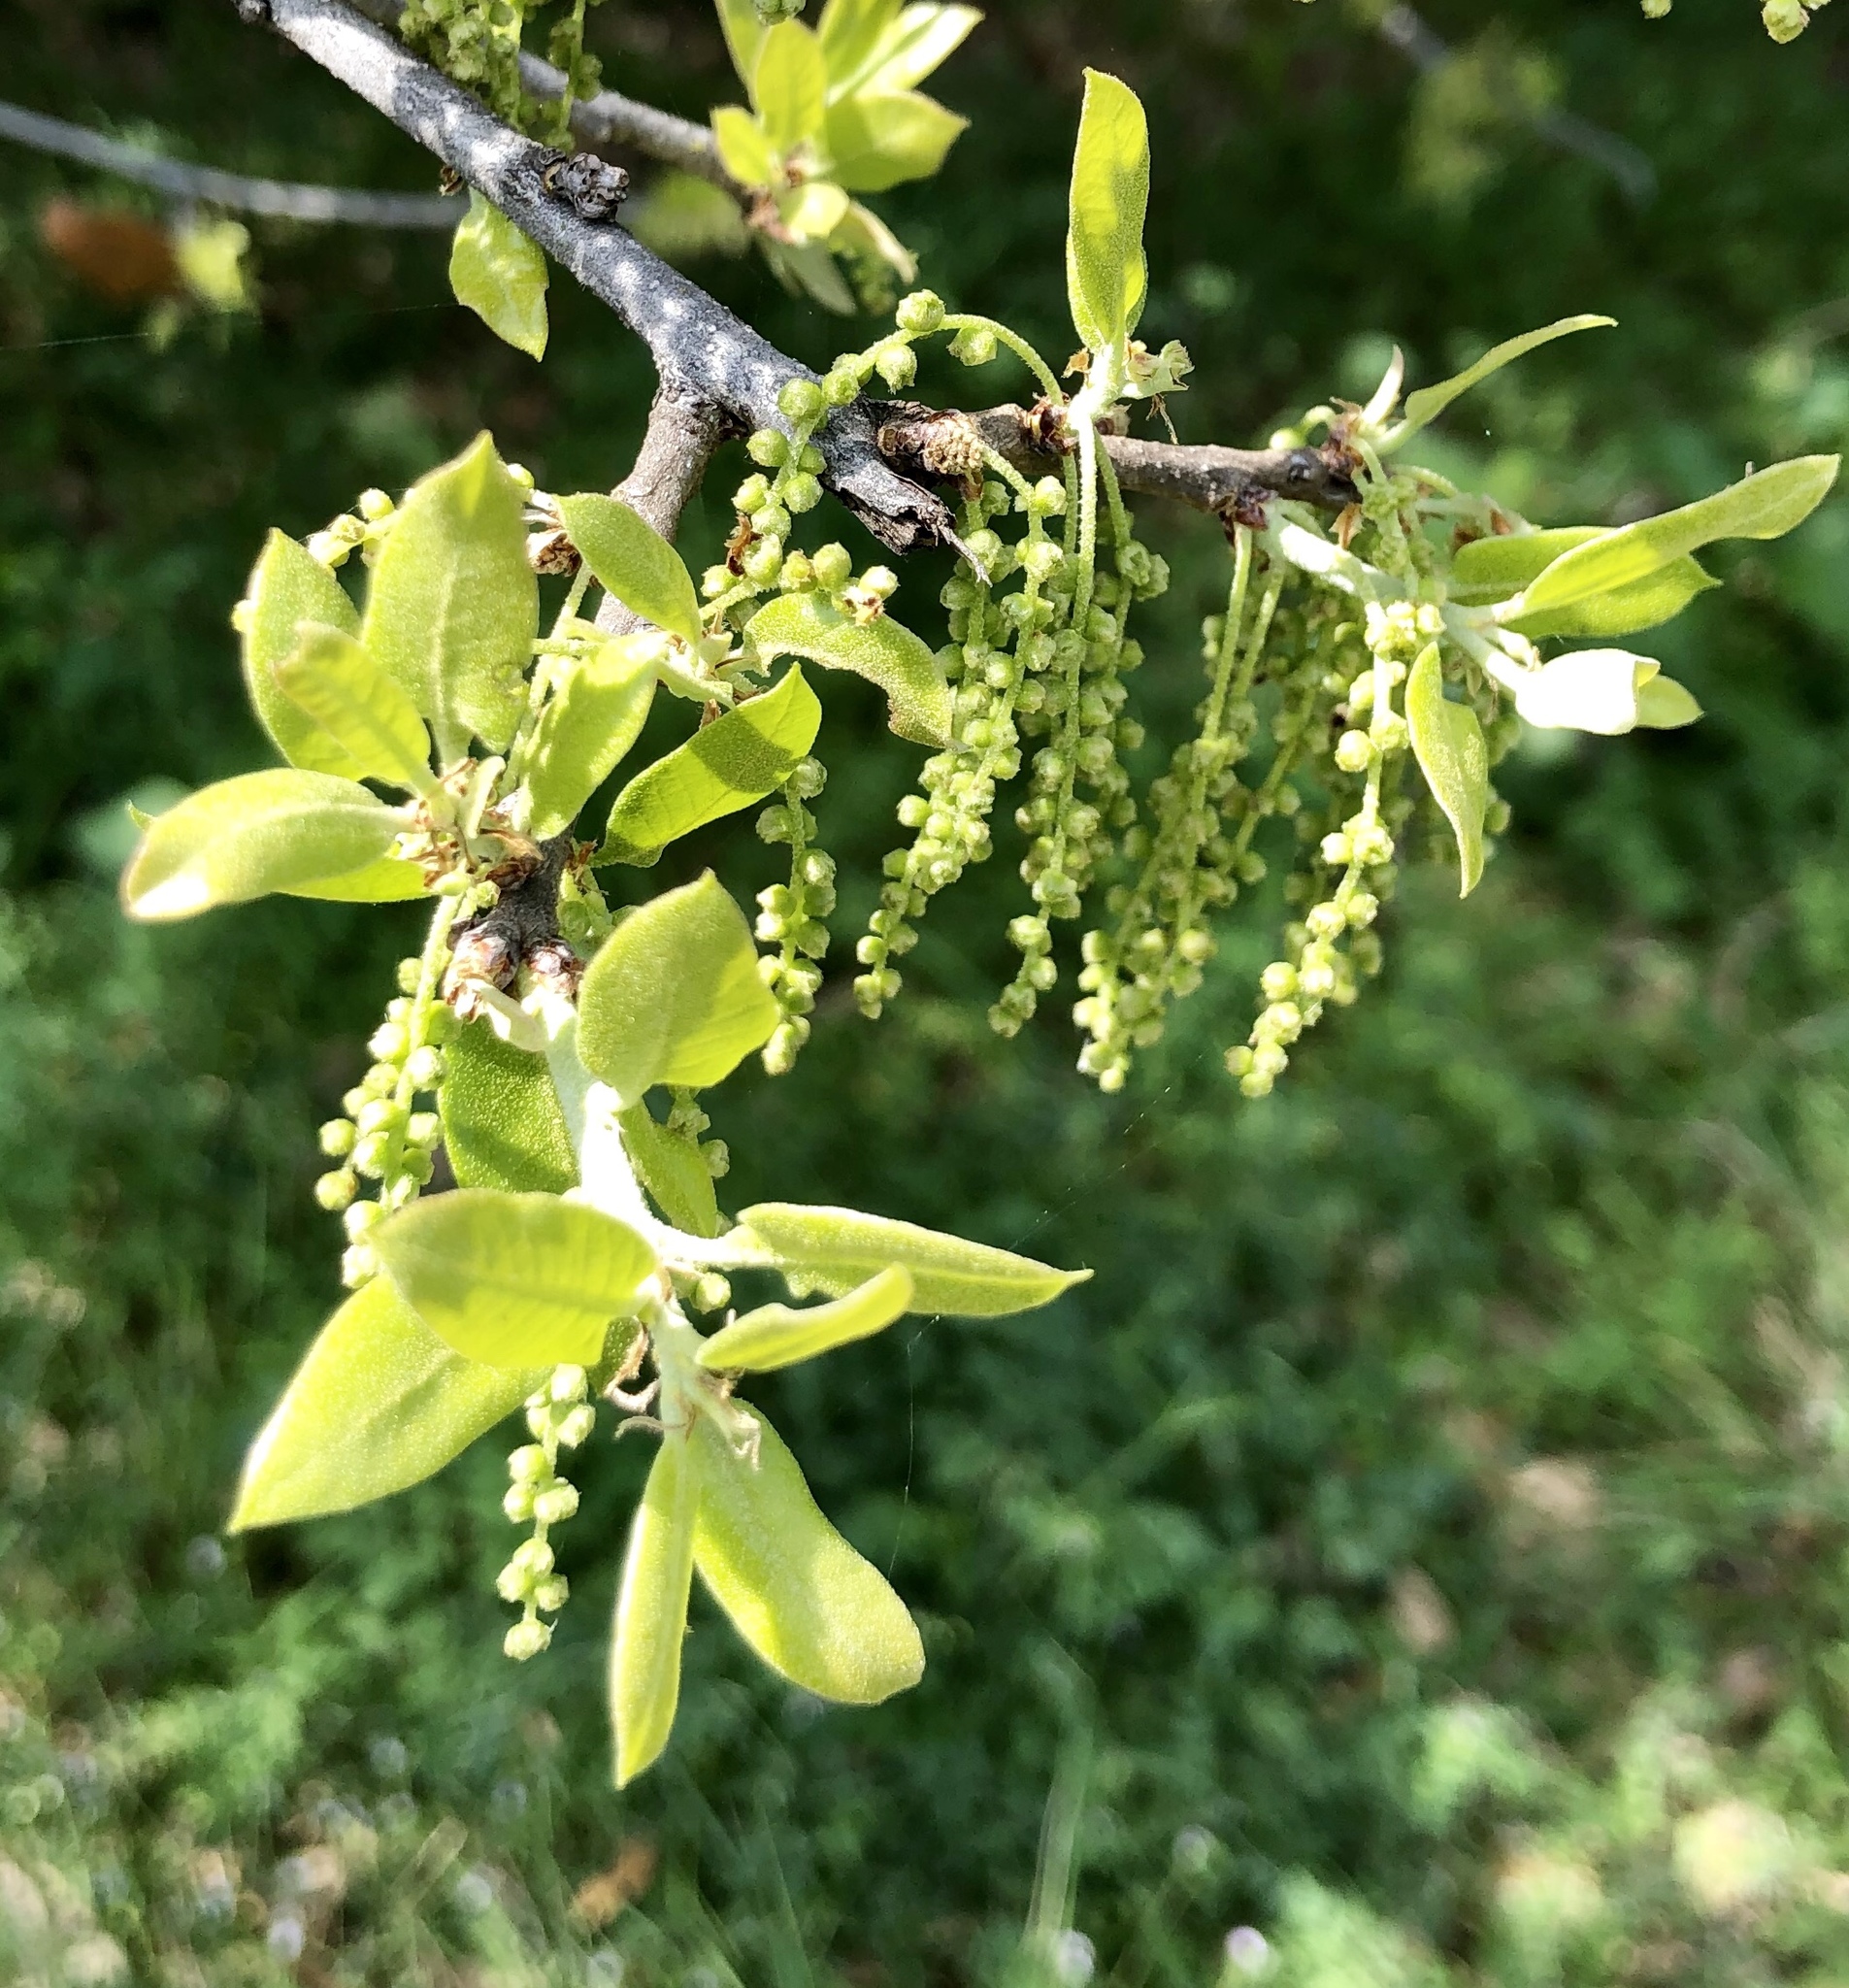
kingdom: Plantae
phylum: Tracheophyta
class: Magnoliopsida
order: Fagales
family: Fagaceae
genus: Quercus
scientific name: Quercus fusiformis
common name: Texas live oak
